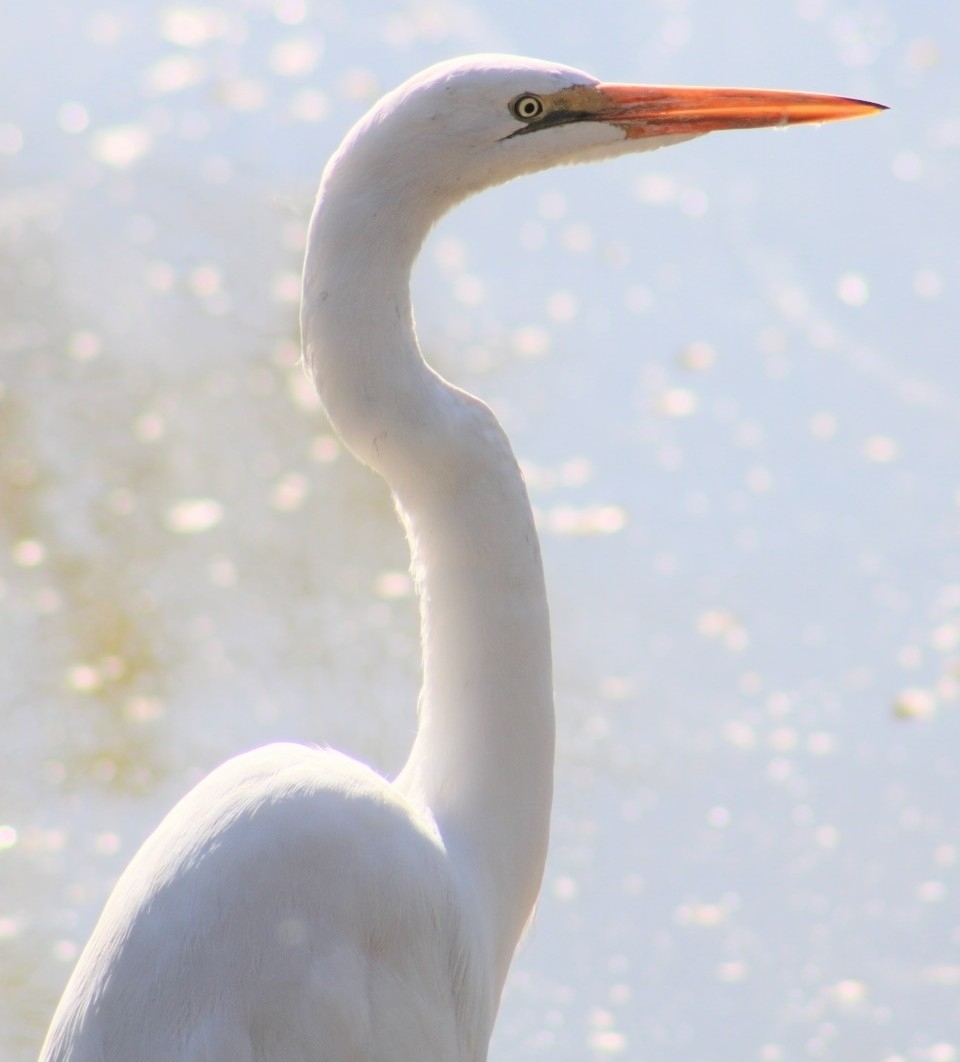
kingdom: Animalia
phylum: Chordata
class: Aves
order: Pelecaniformes
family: Ardeidae
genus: Ardea
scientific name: Ardea alba
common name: Great egret
